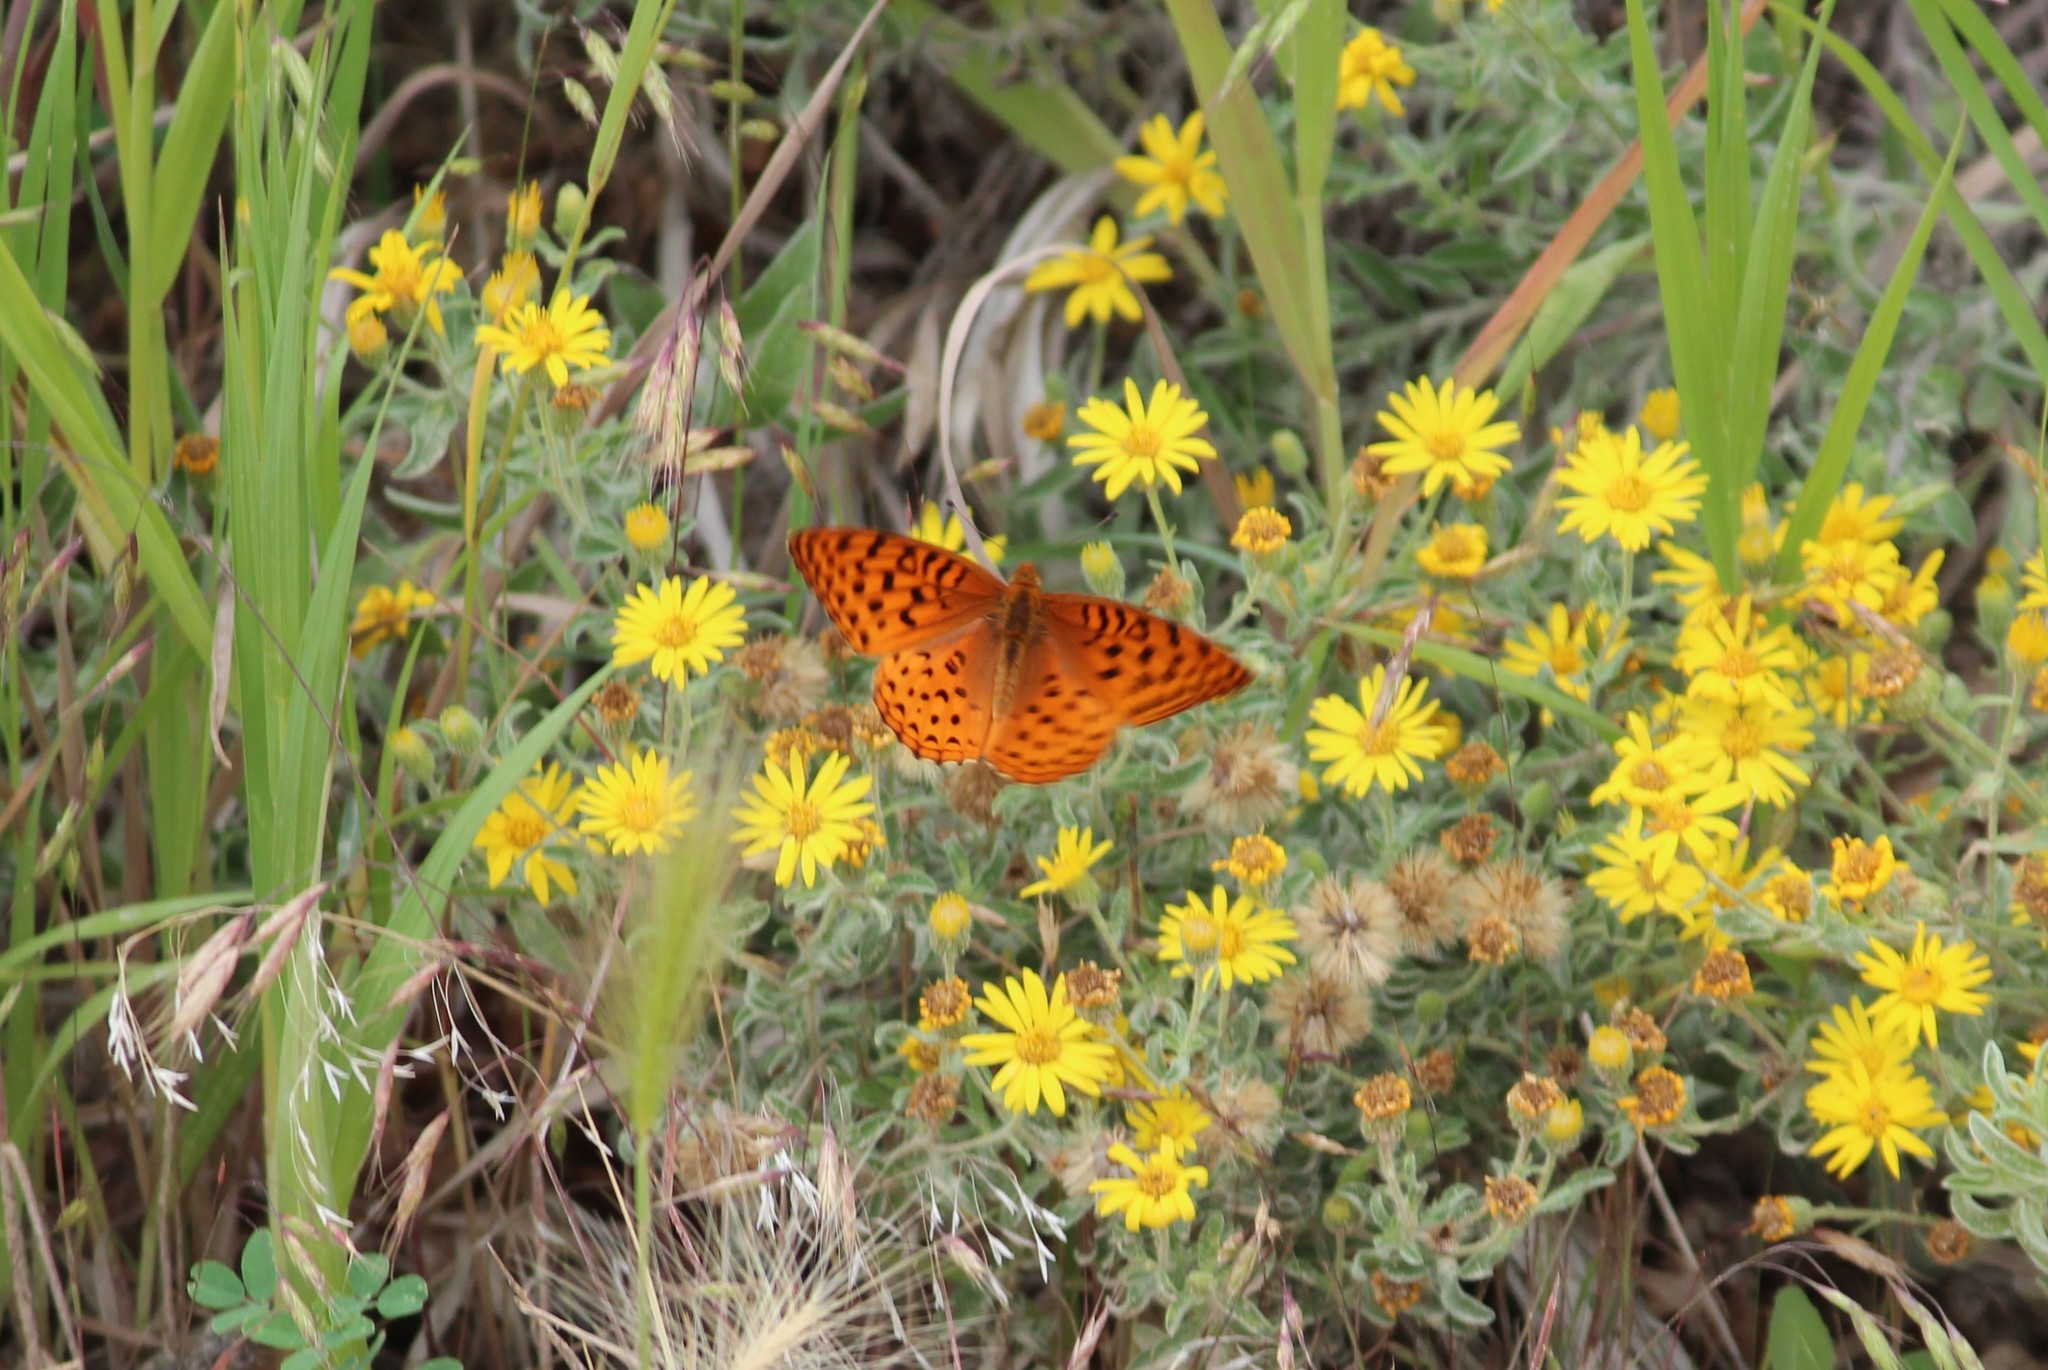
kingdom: Animalia
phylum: Arthropoda
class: Insecta
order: Lepidoptera
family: Nymphalidae
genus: Speyeria
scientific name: Speyeria aphrodite
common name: Aphrodite friitllary
